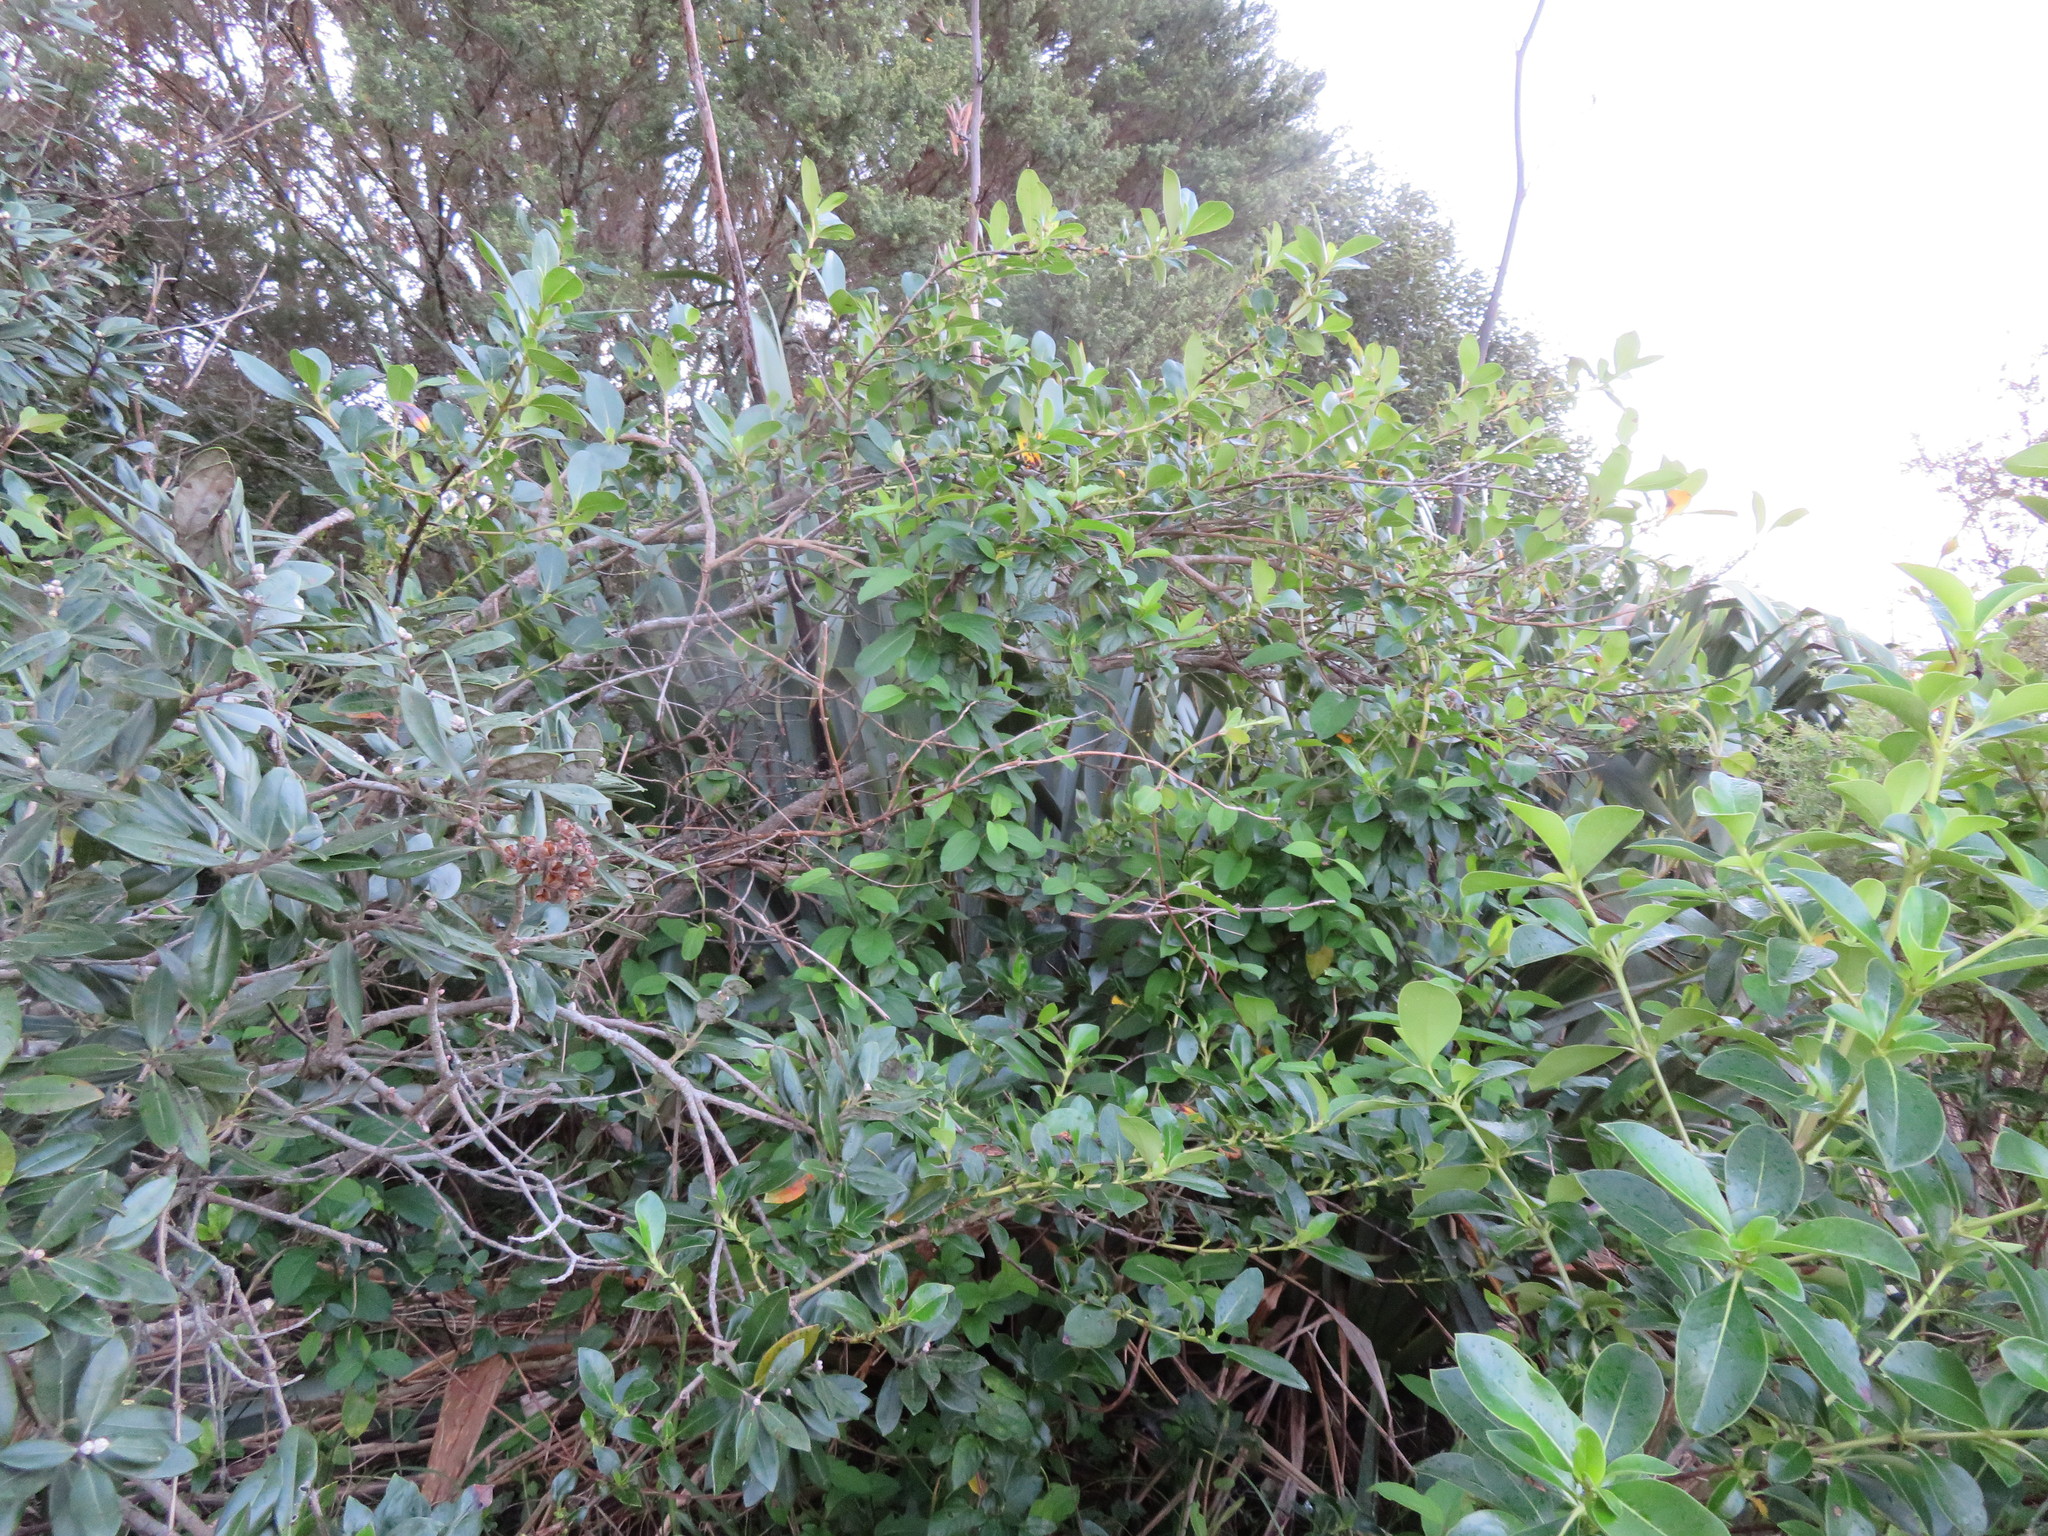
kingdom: Plantae
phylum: Tracheophyta
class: Magnoliopsida
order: Myrtales
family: Myrtaceae
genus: Metrosideros
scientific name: Metrosideros excelsa
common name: New zealand christmastree
